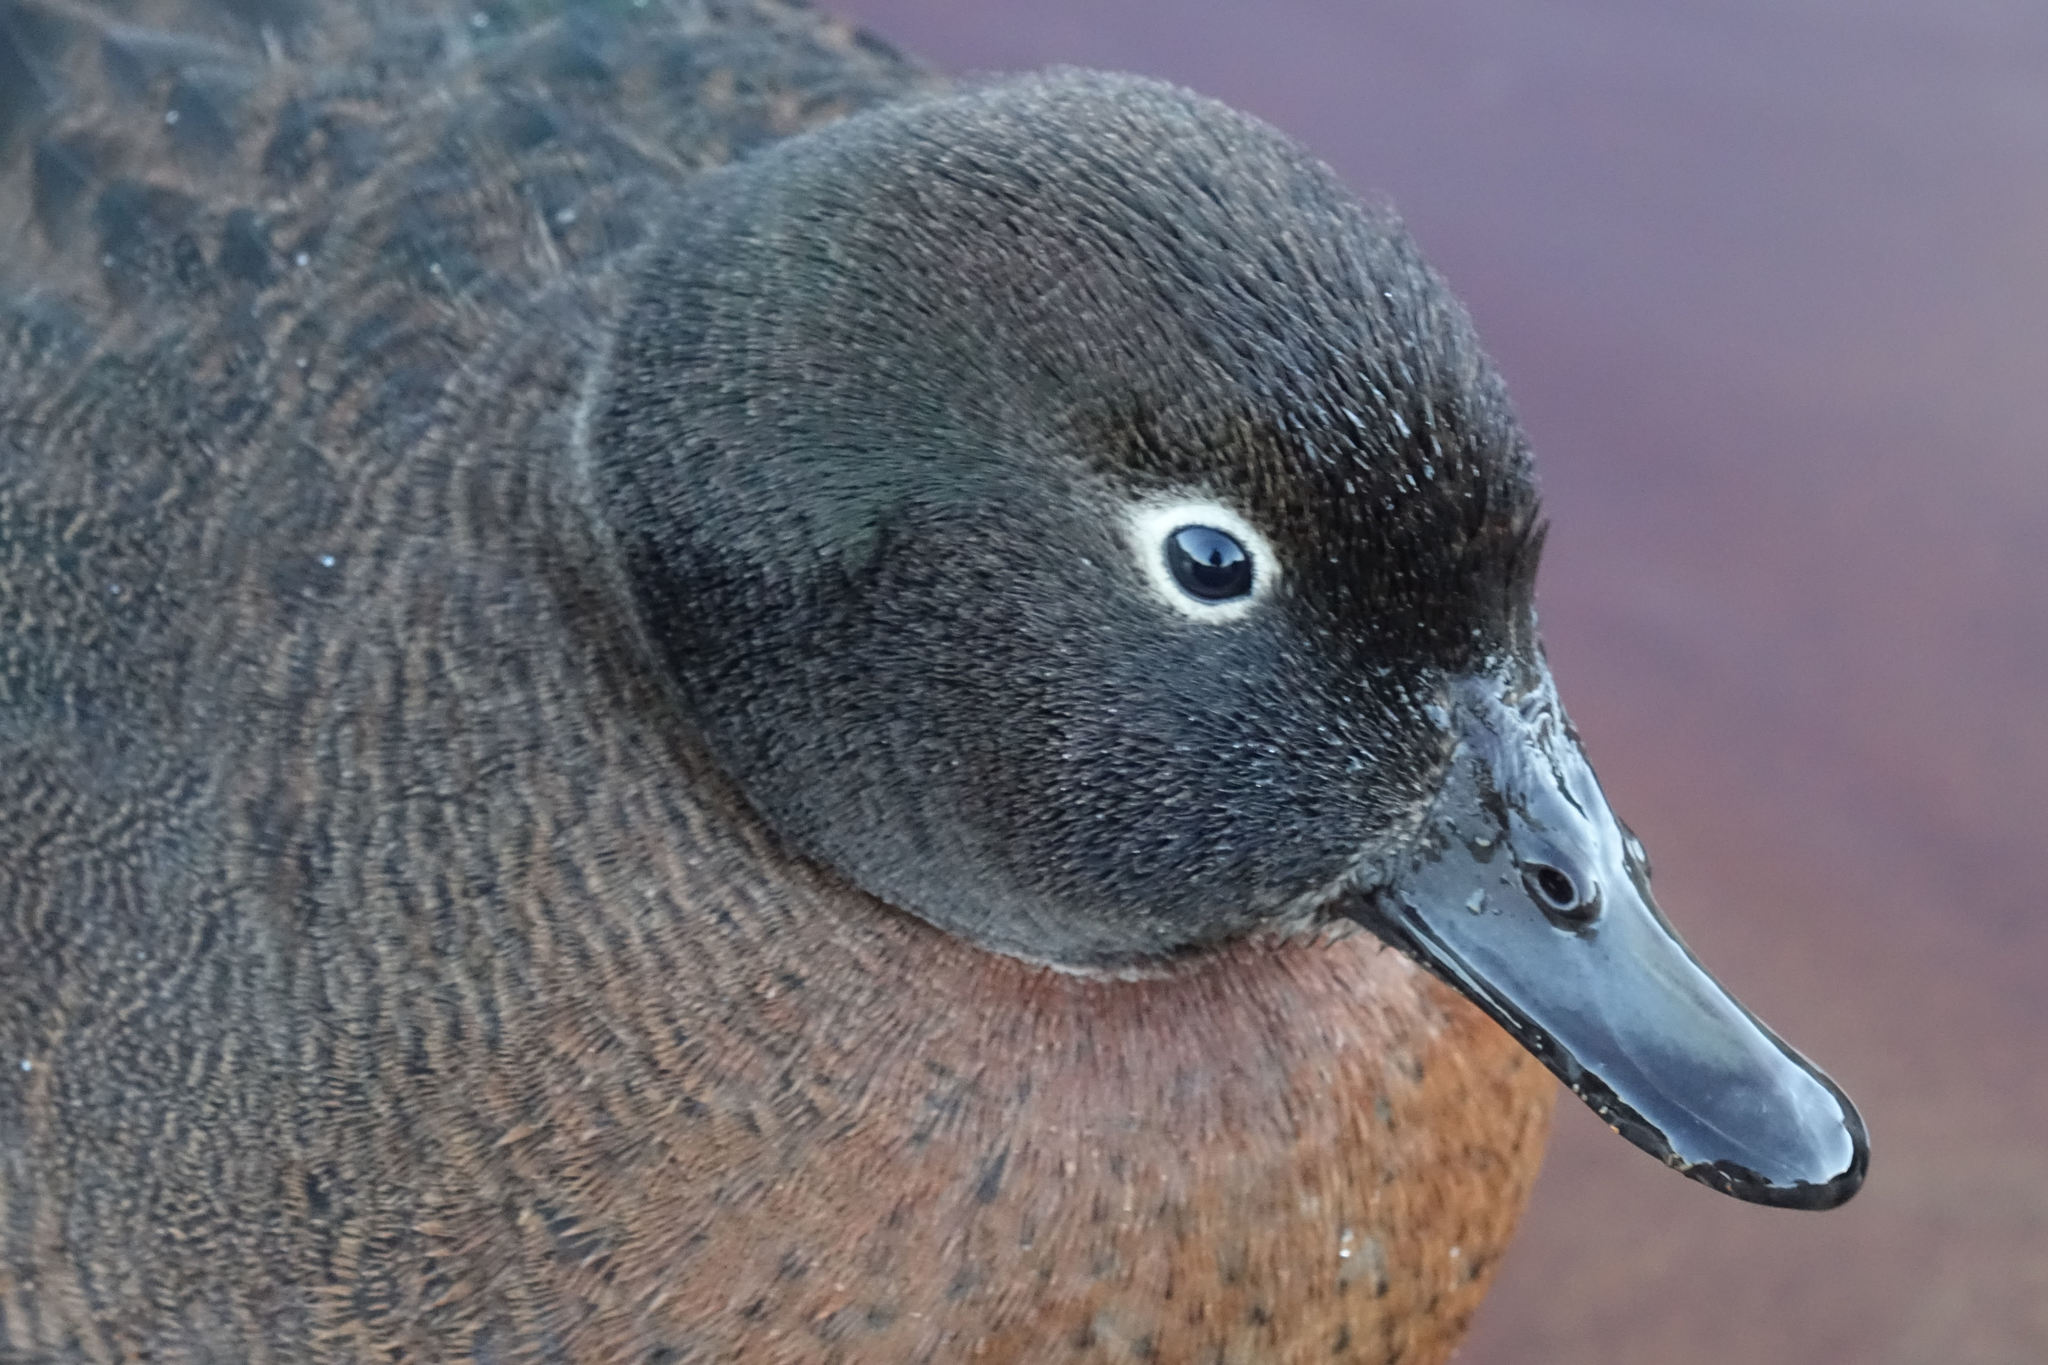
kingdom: Animalia
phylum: Chordata
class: Aves
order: Anseriformes
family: Anatidae
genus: Anas
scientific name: Anas nesiotis
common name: Campbell teal
